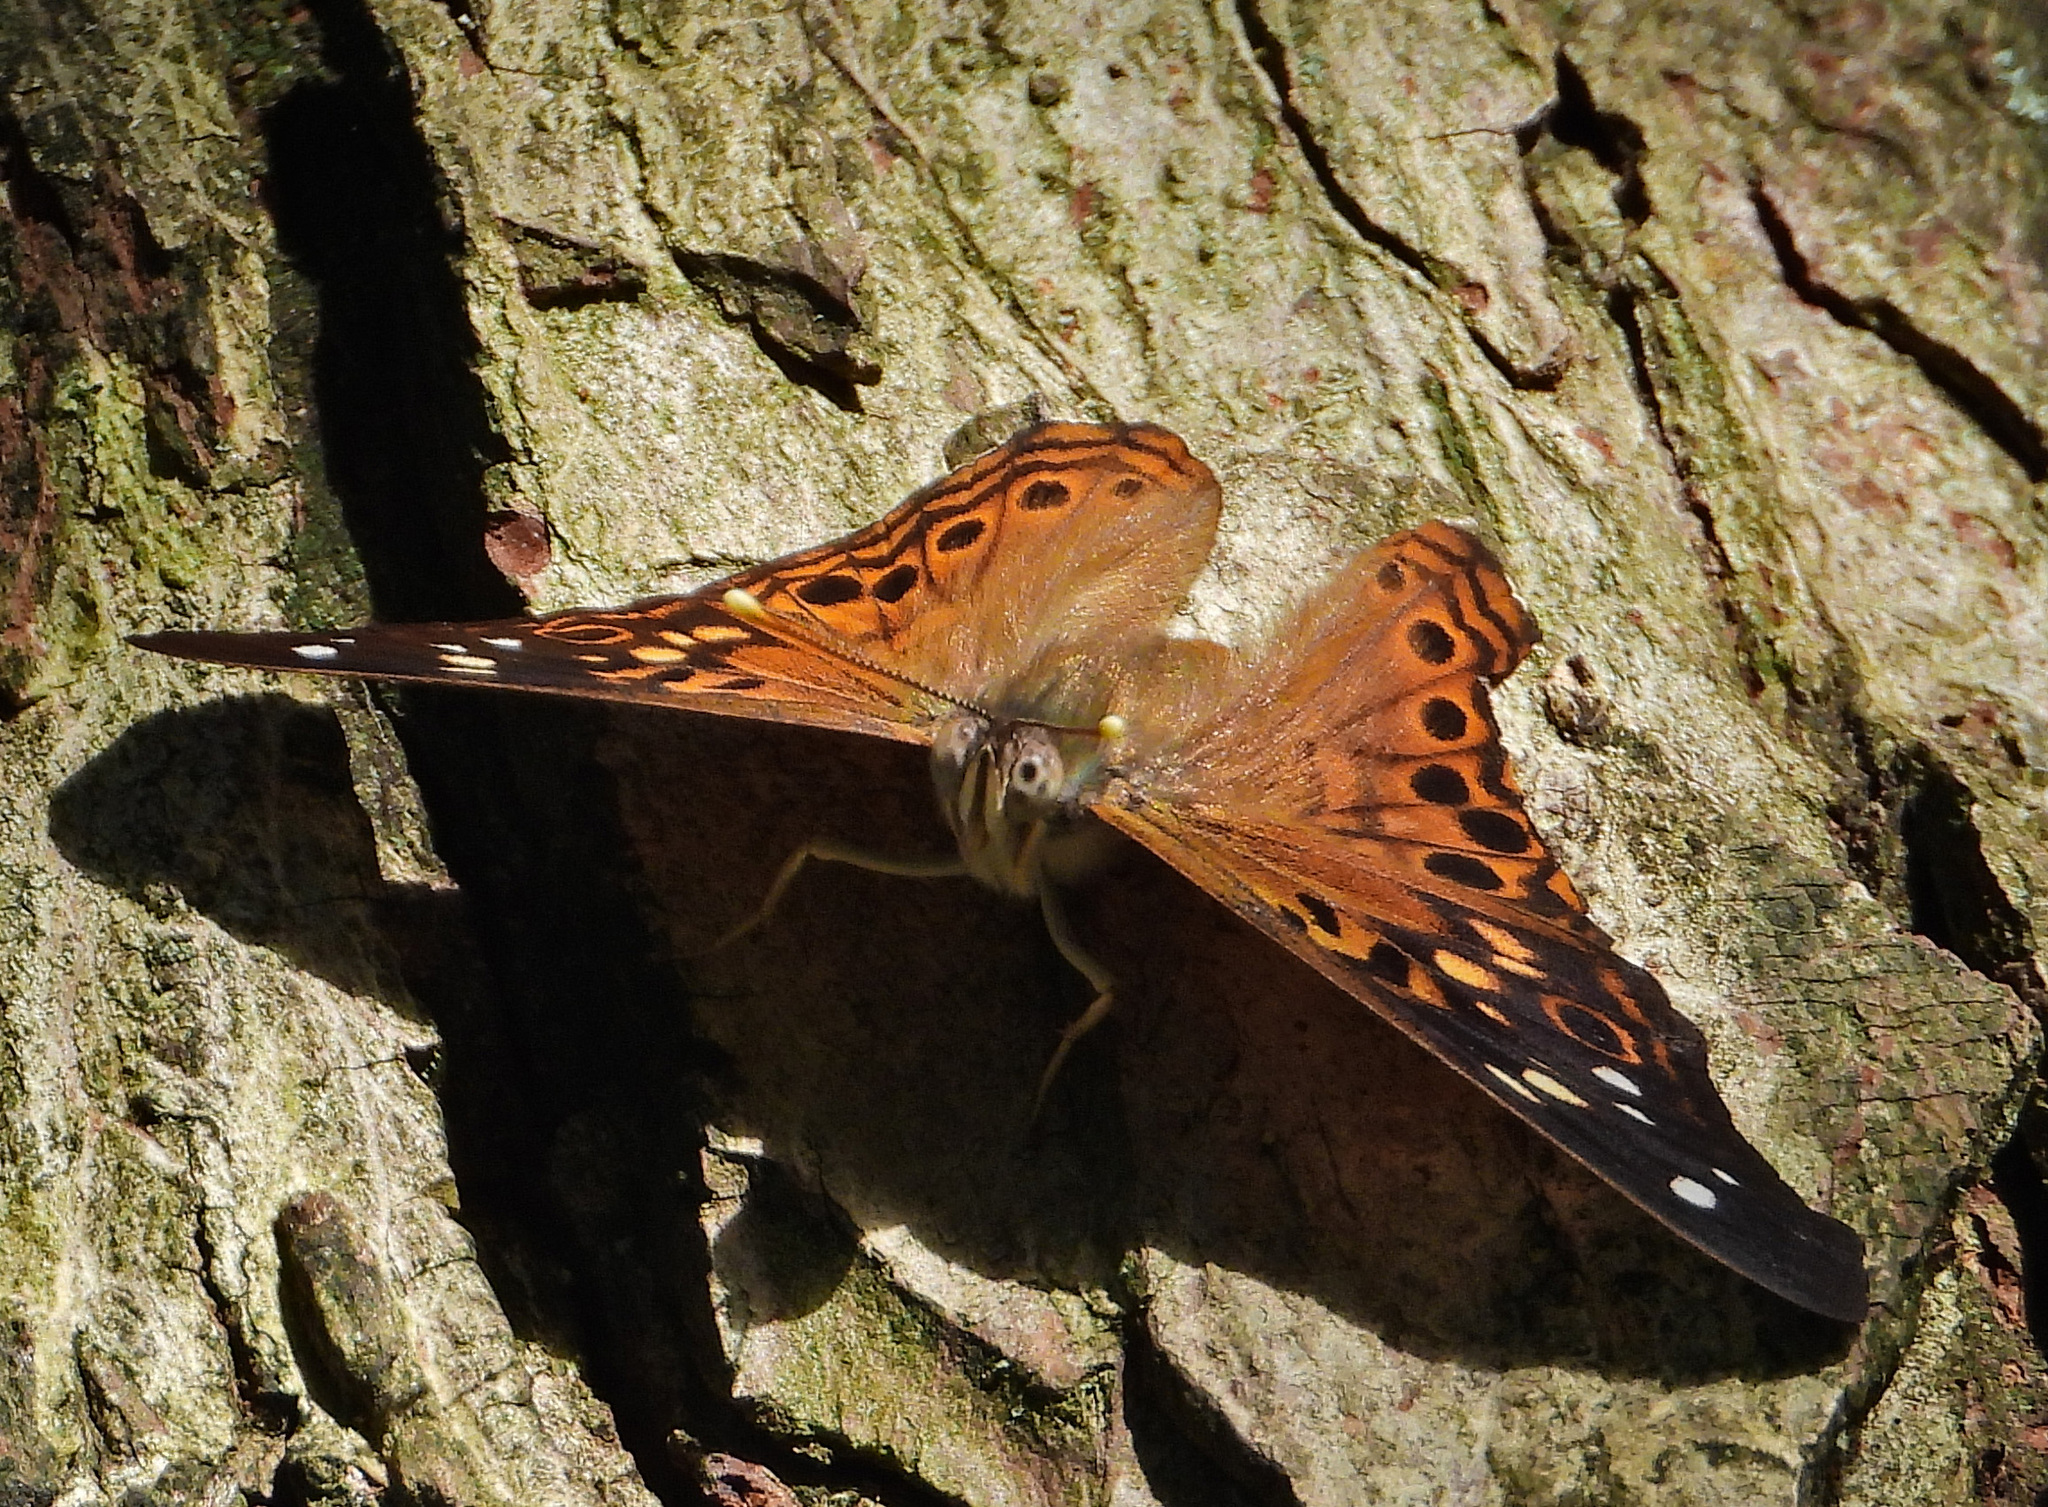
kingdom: Animalia
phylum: Arthropoda
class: Insecta
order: Lepidoptera
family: Nymphalidae
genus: Asterocampa
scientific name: Asterocampa celtis
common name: Hackberry emperor
